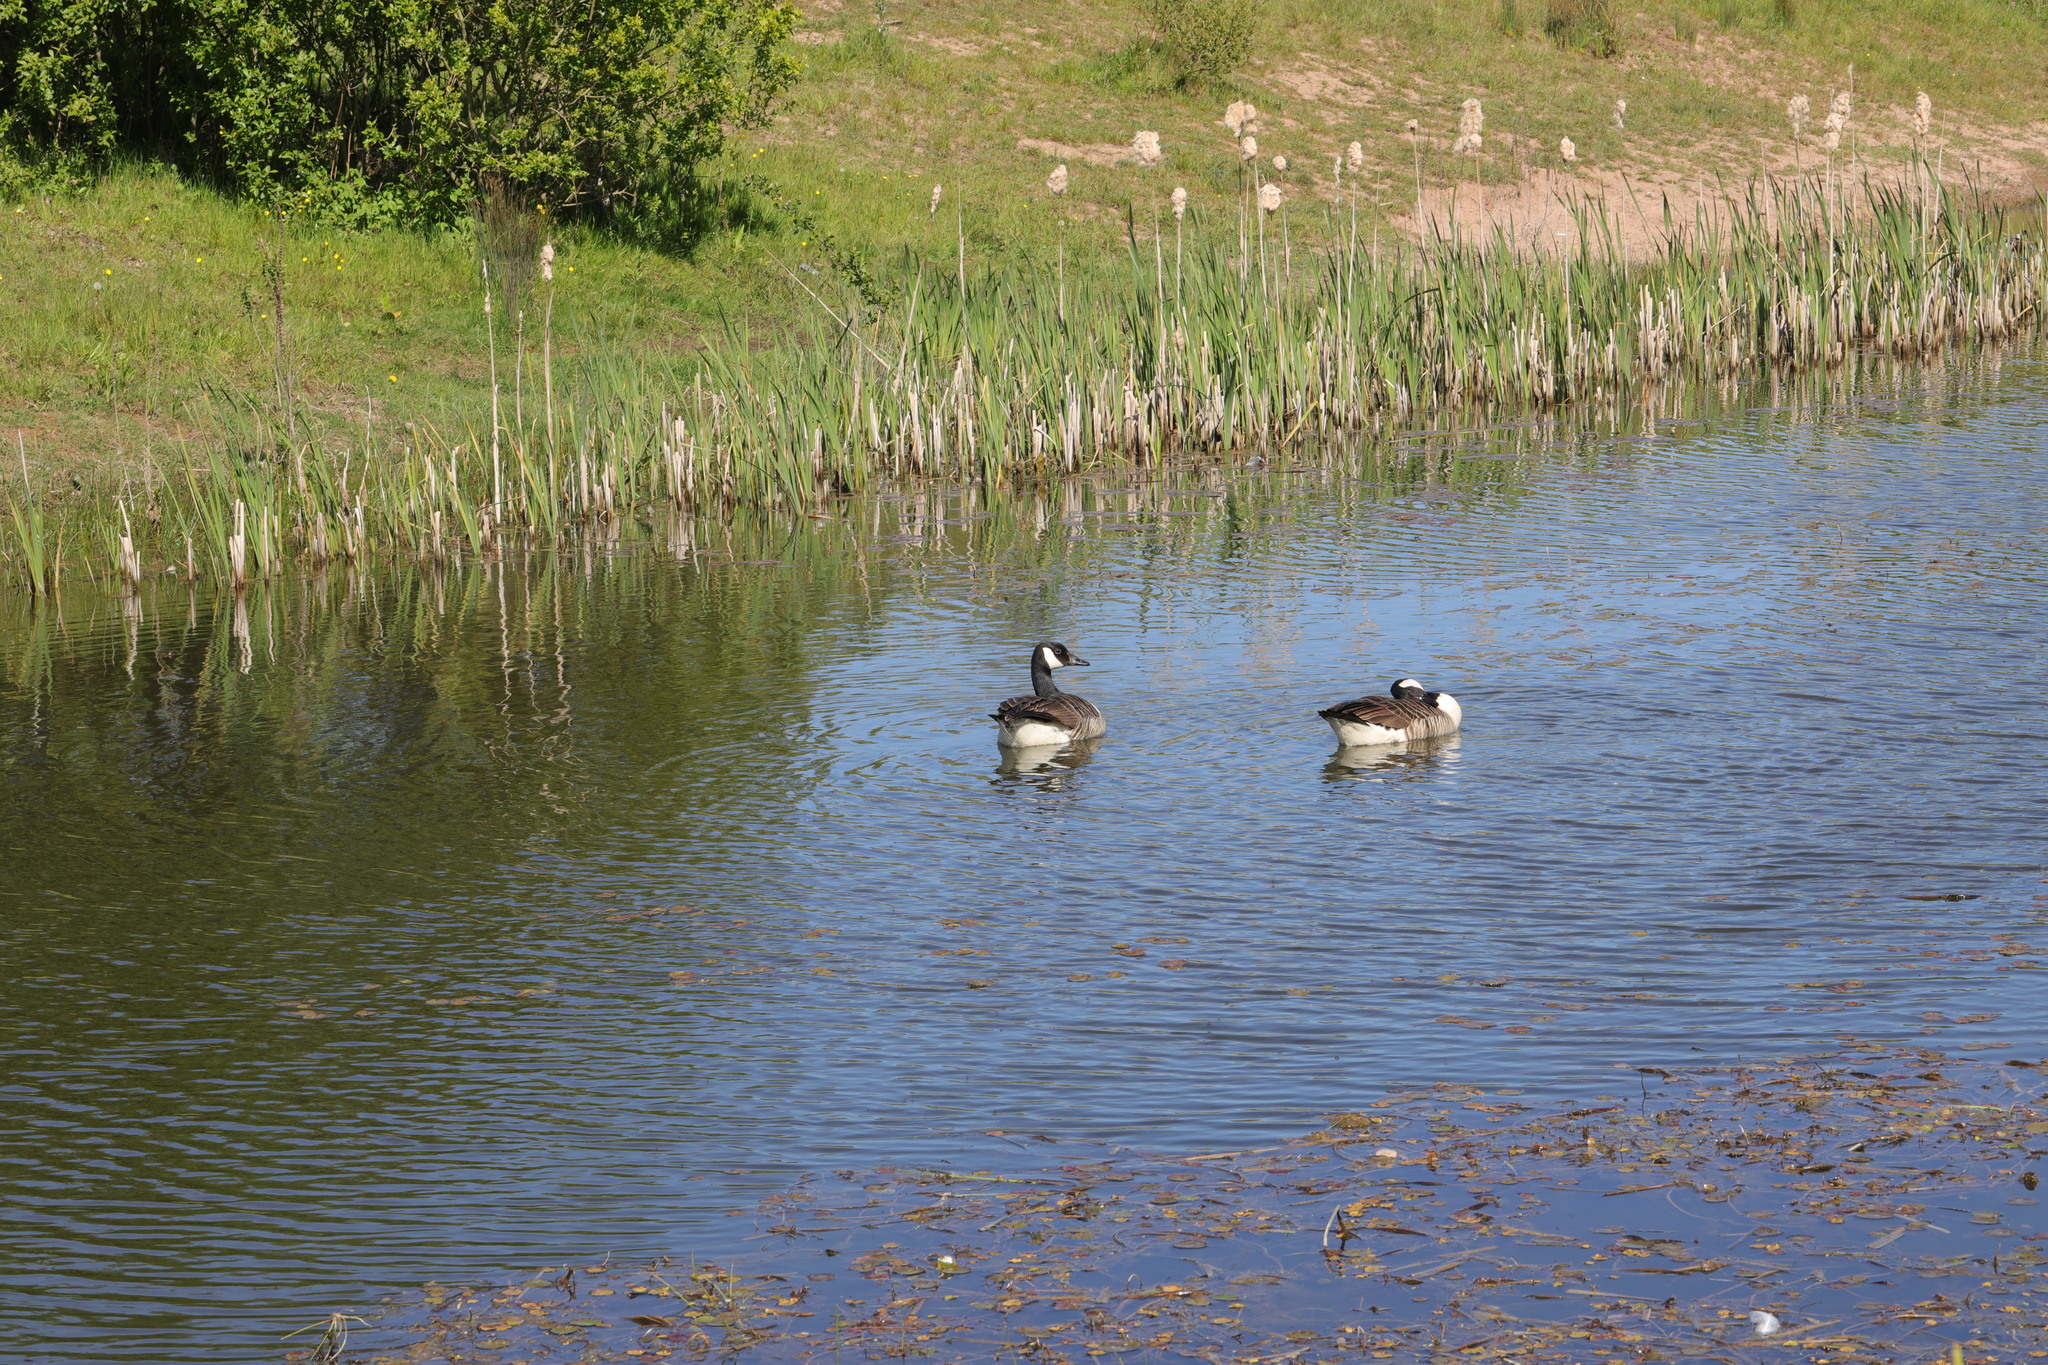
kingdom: Animalia
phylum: Chordata
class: Aves
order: Anseriformes
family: Anatidae
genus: Branta
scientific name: Branta canadensis
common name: Canada goose
